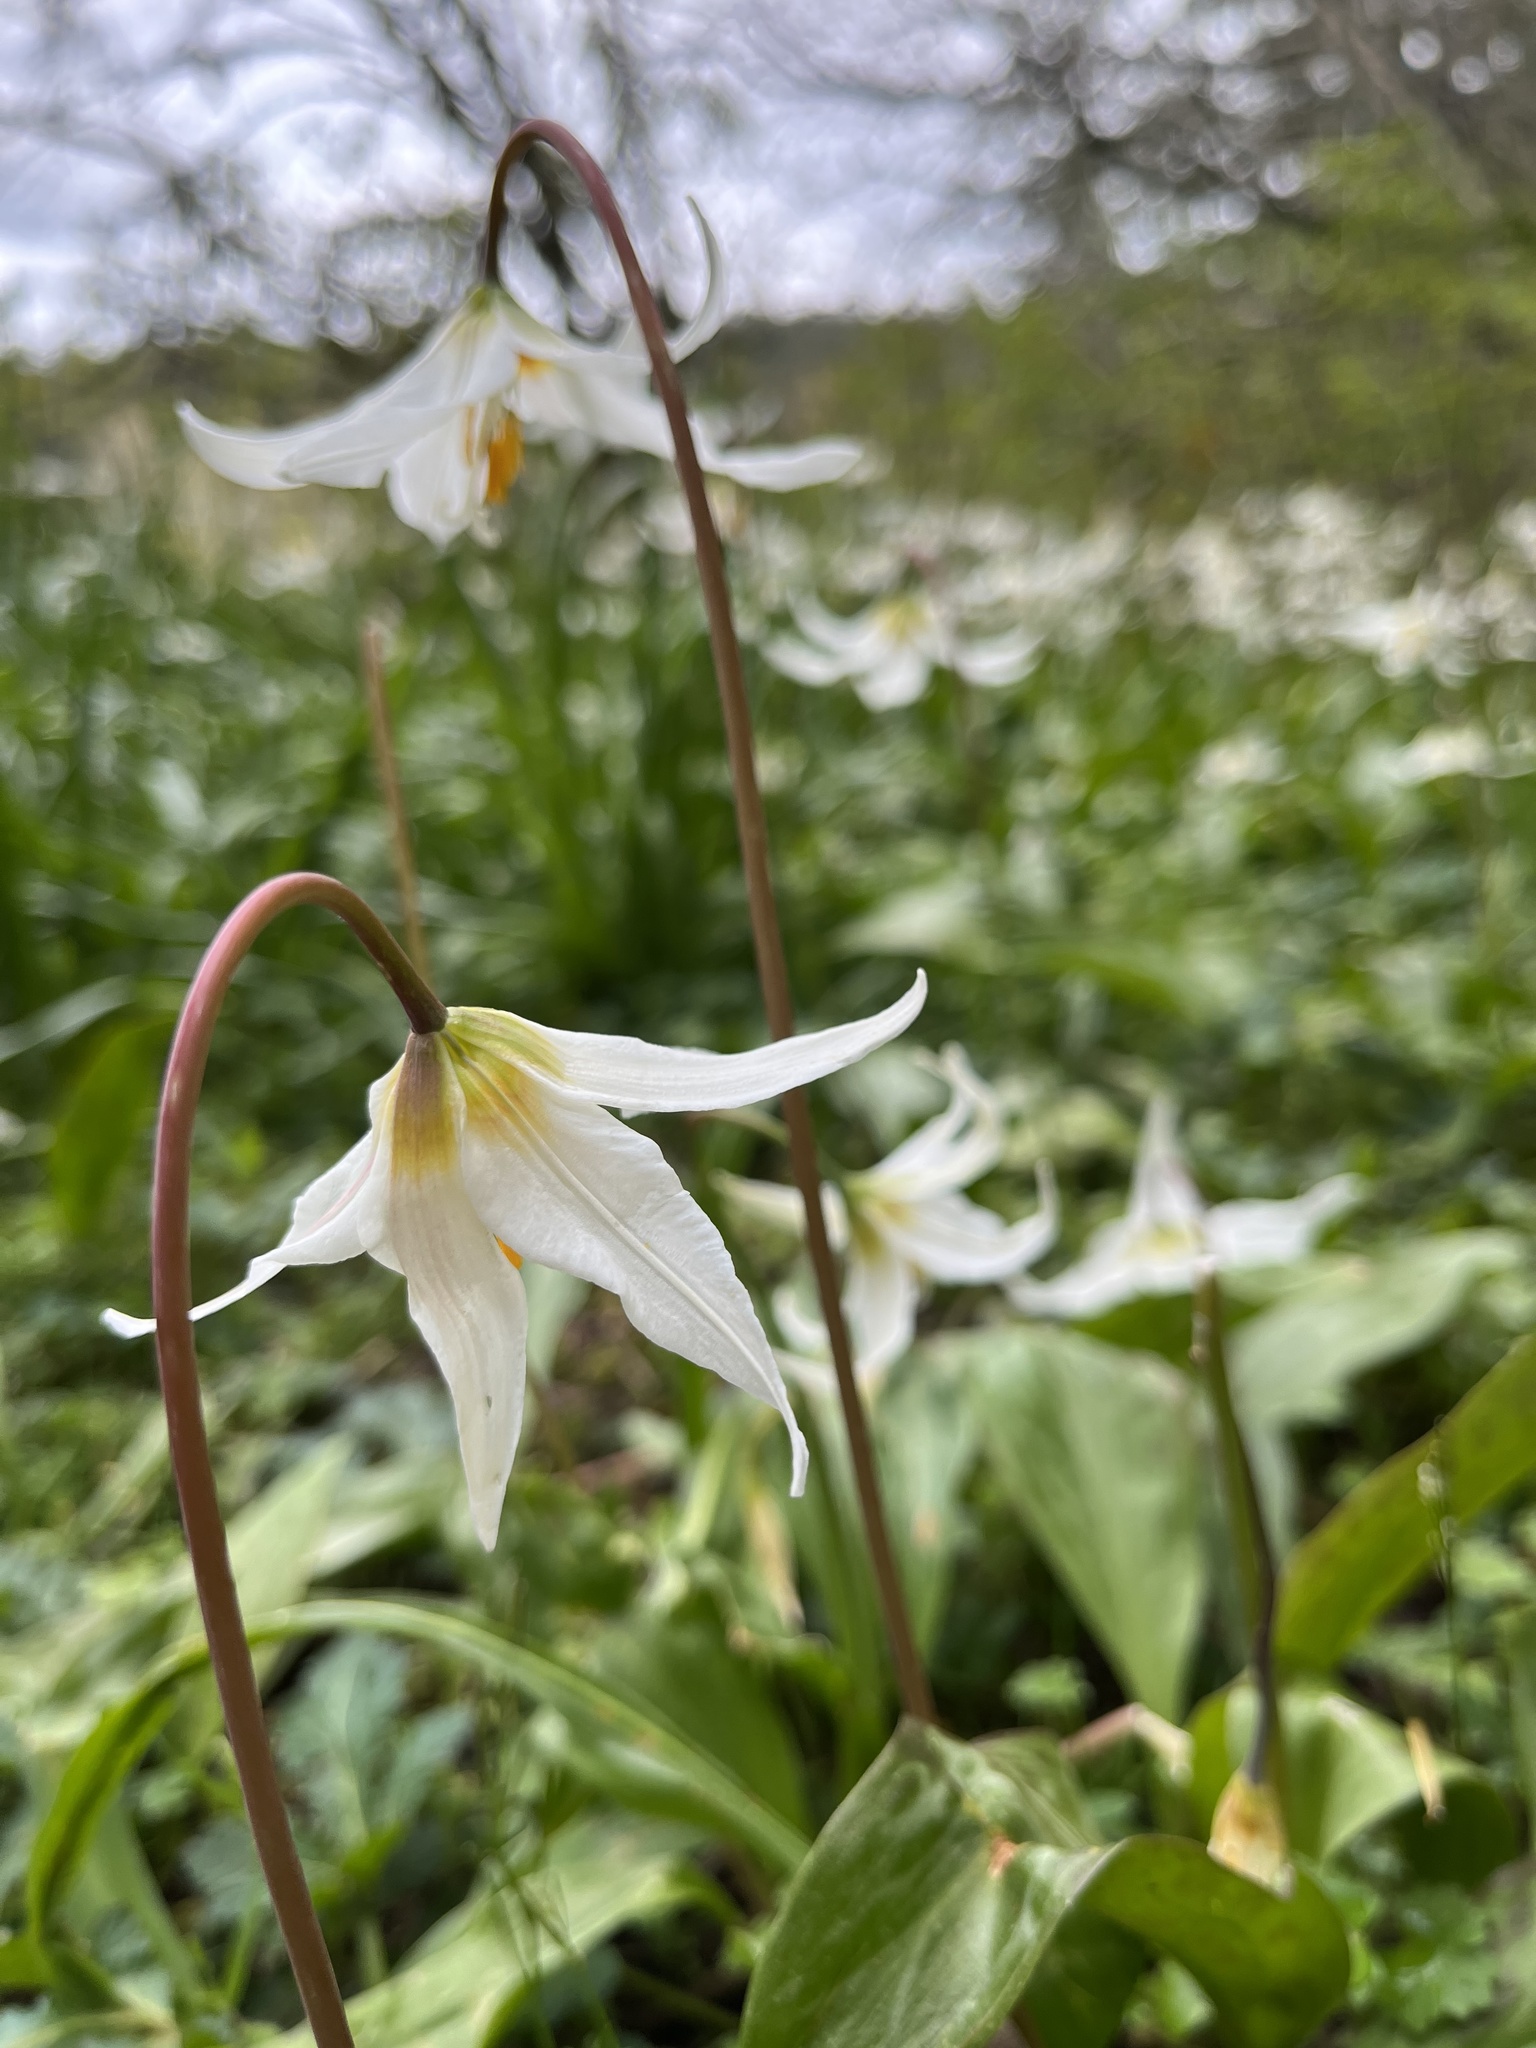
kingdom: Plantae
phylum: Tracheophyta
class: Liliopsida
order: Liliales
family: Liliaceae
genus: Erythronium
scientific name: Erythronium oregonum
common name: Giant adder's-tongue
